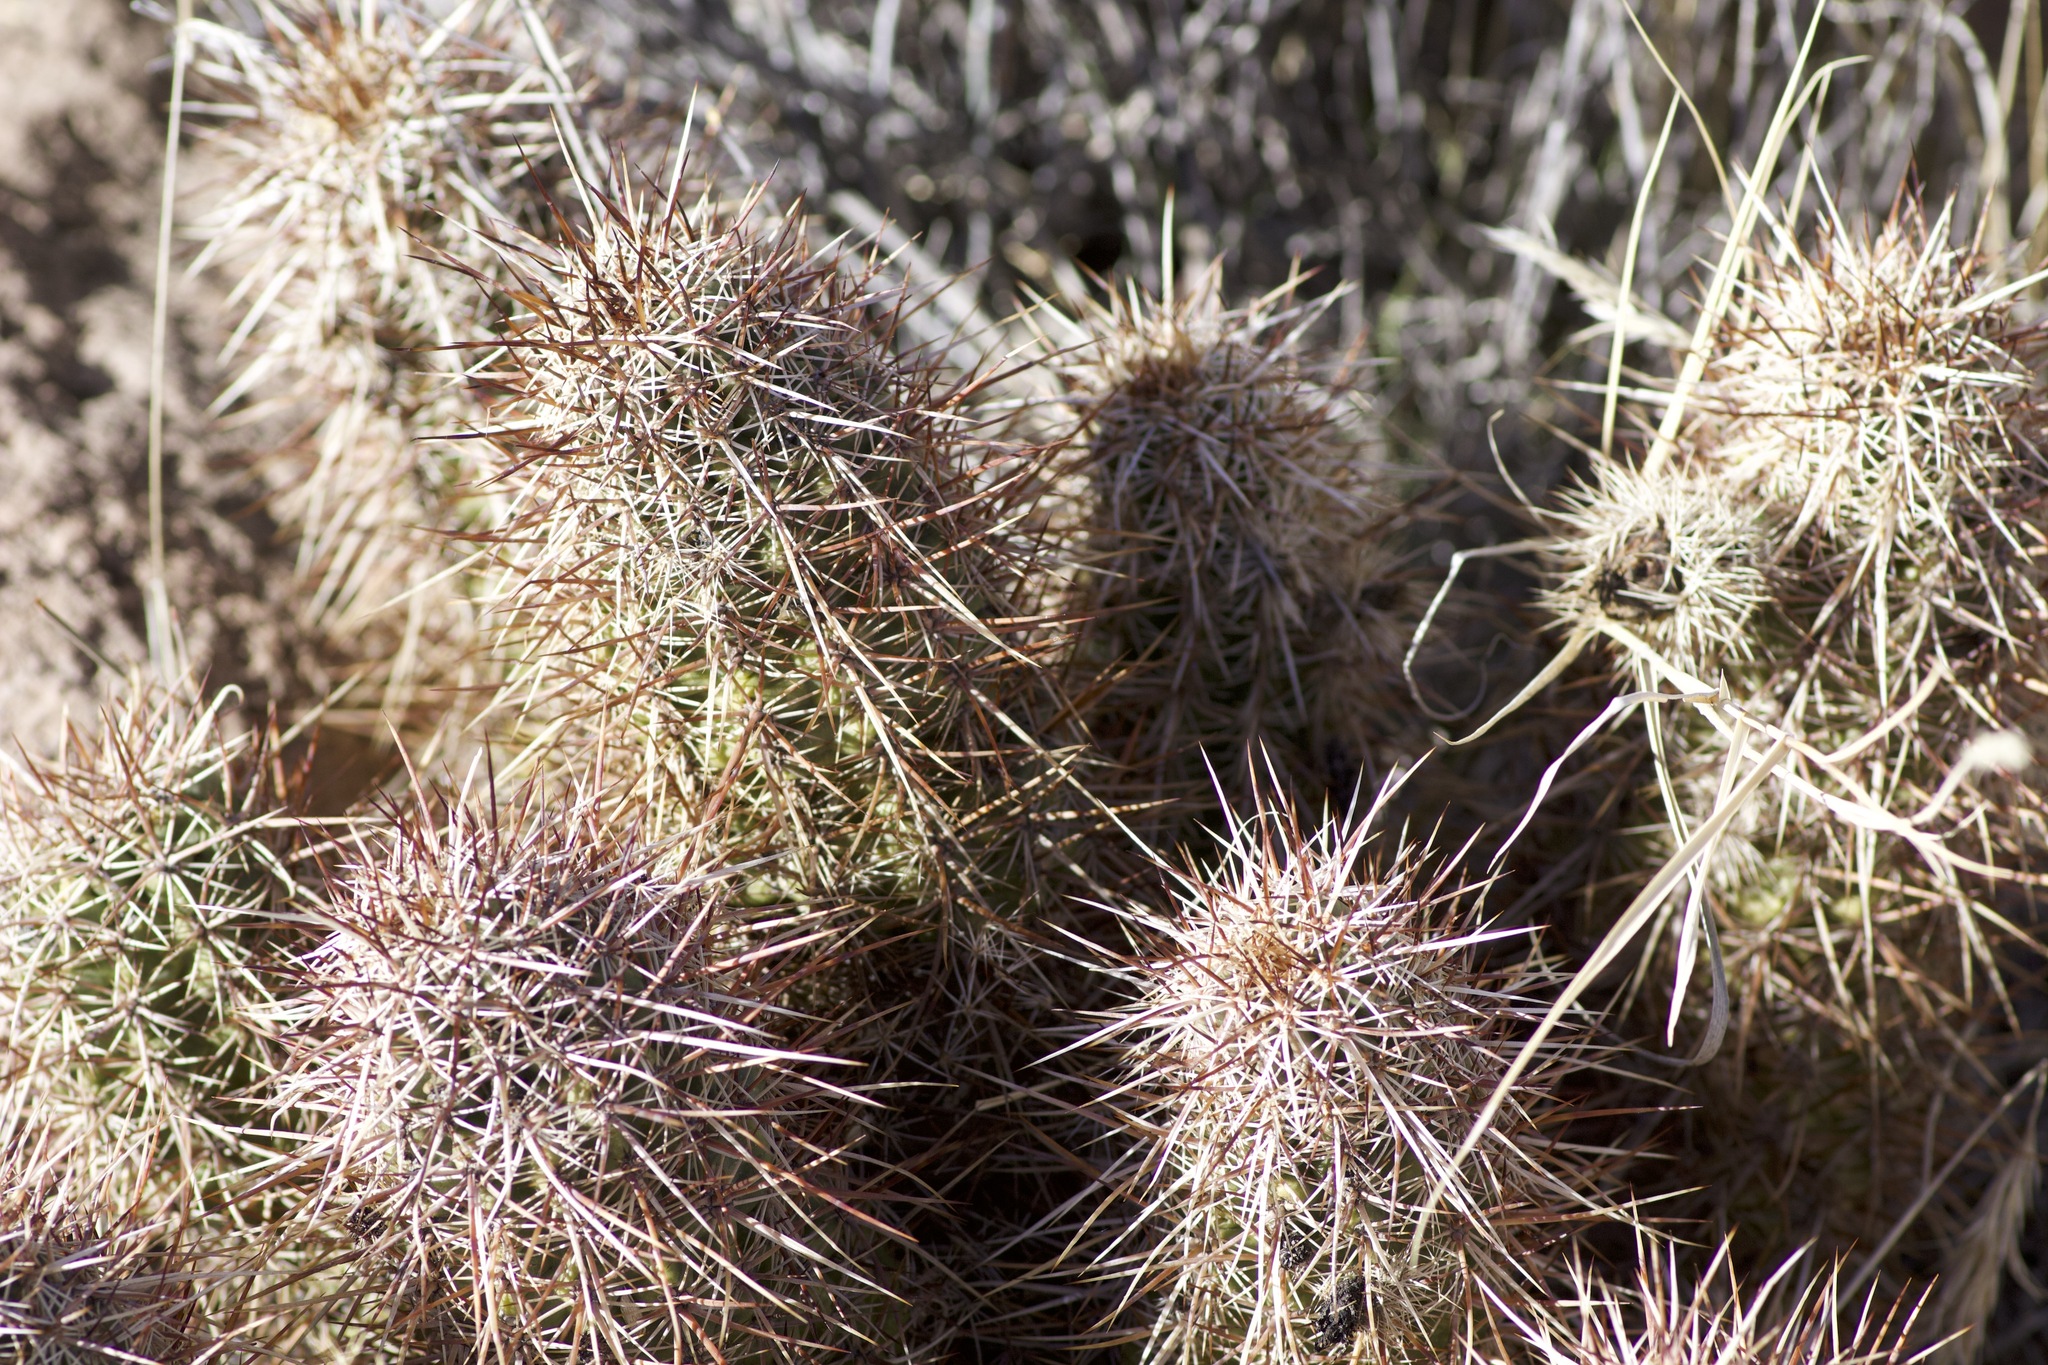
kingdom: Plantae
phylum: Tracheophyta
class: Magnoliopsida
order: Caryophyllales
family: Cactaceae
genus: Echinocereus
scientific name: Echinocereus engelmannii
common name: Engelmann's hedgehog cactus
